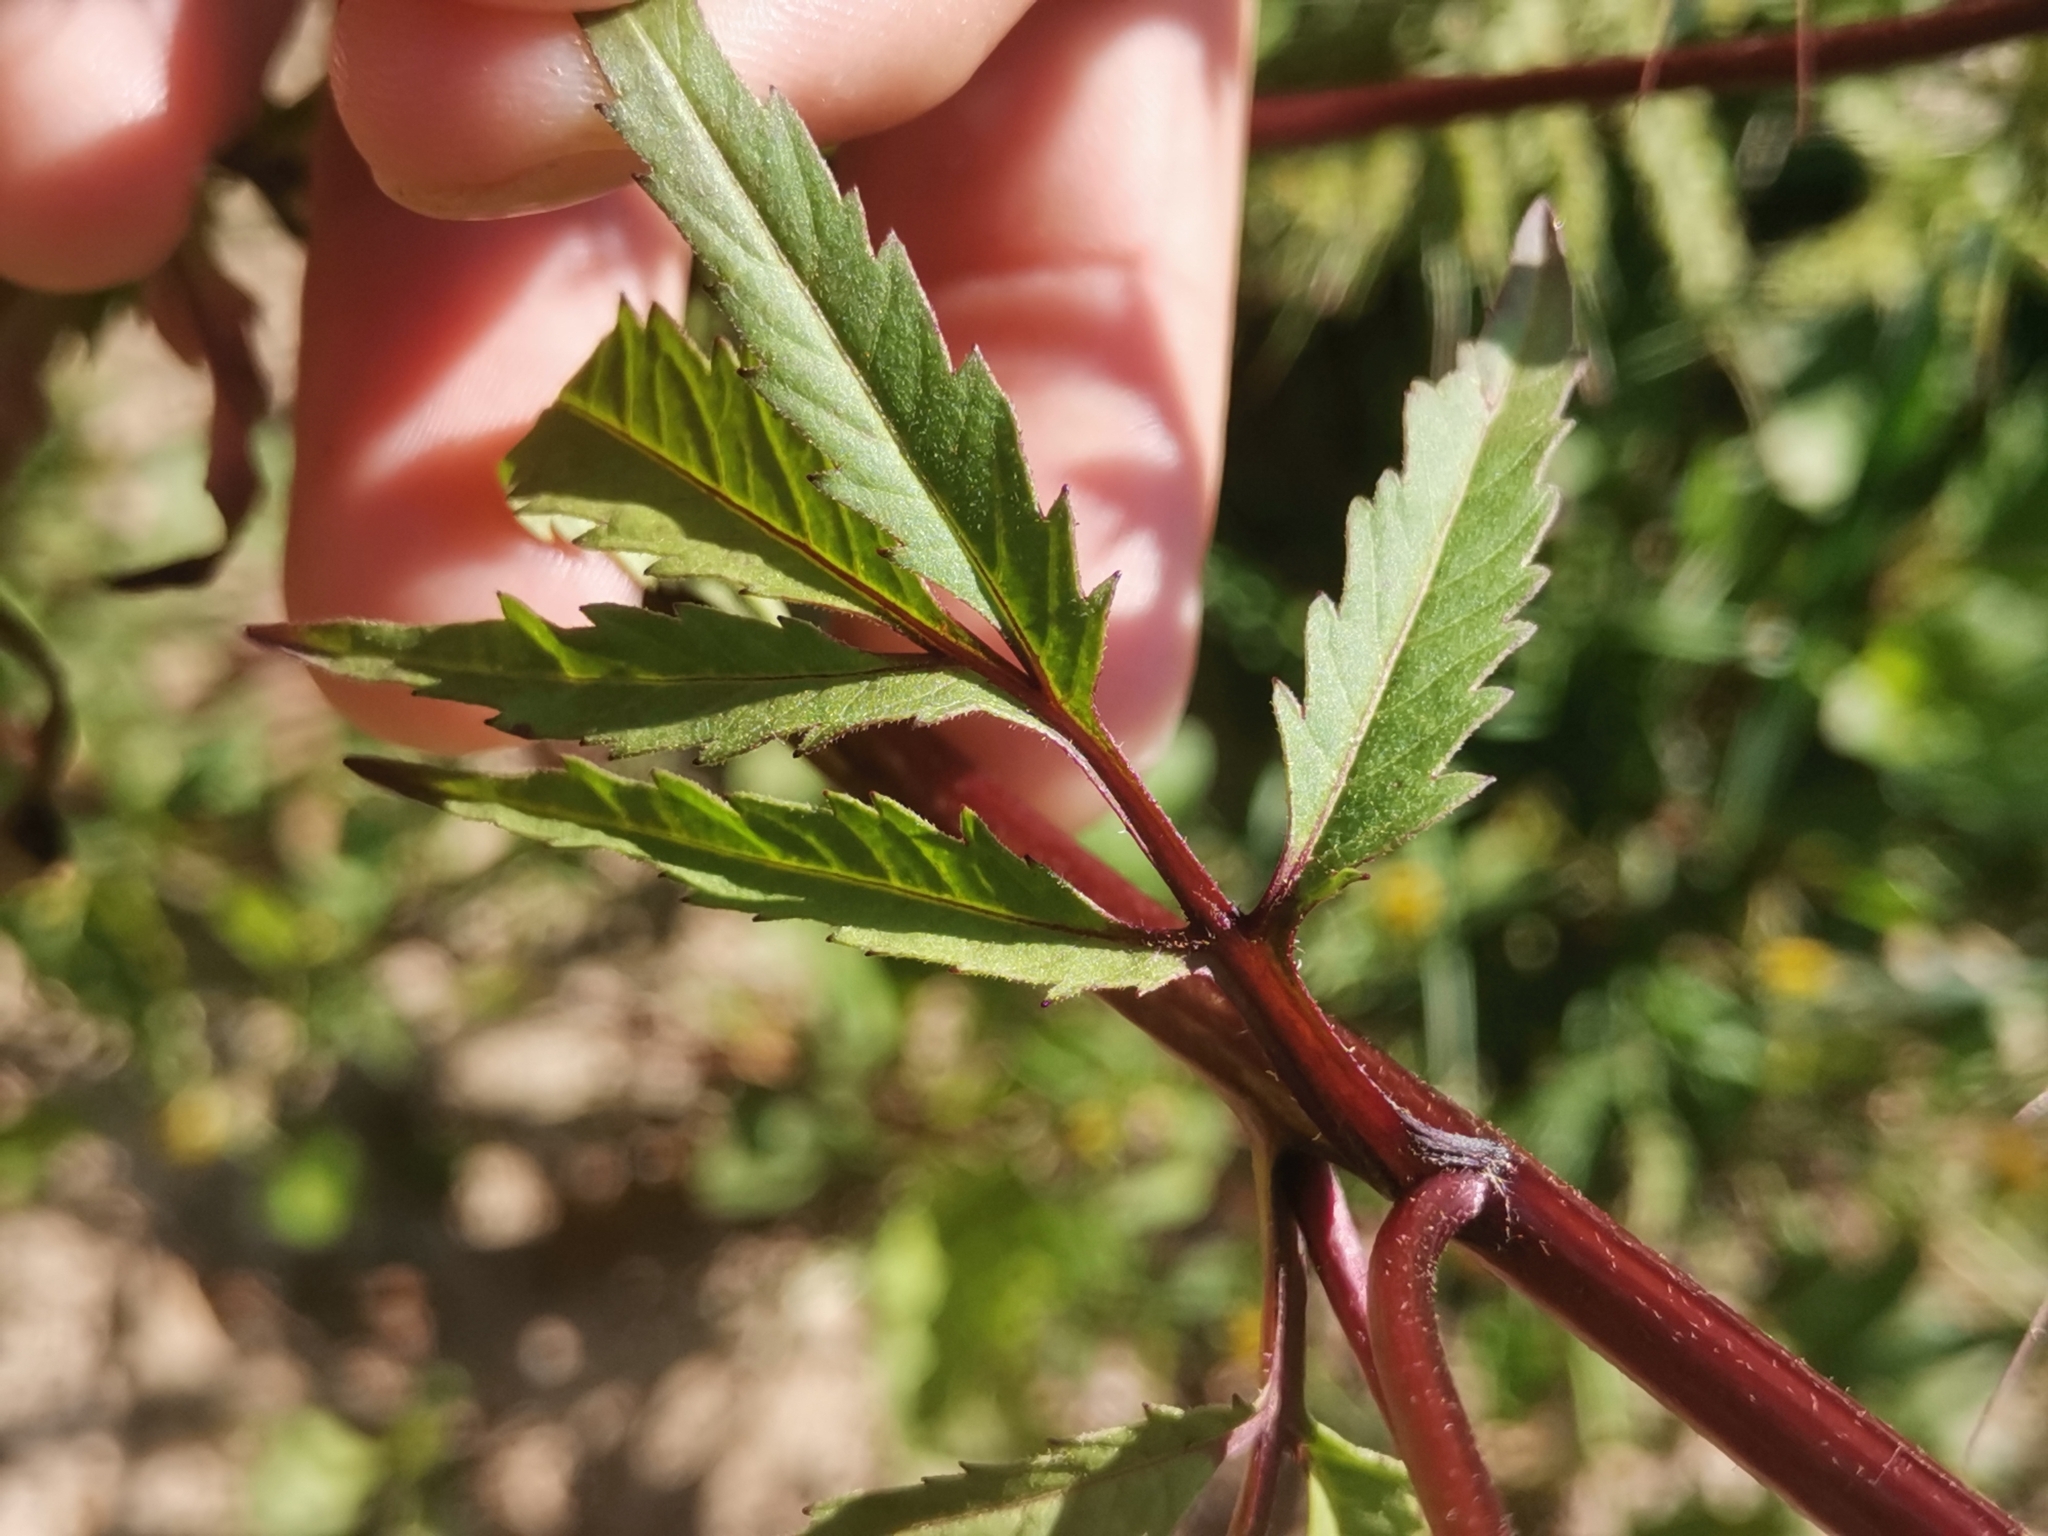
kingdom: Plantae
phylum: Tracheophyta
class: Magnoliopsida
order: Asterales
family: Asteraceae
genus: Bidens
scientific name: Bidens tripartita
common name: Trifid bur-marigold
